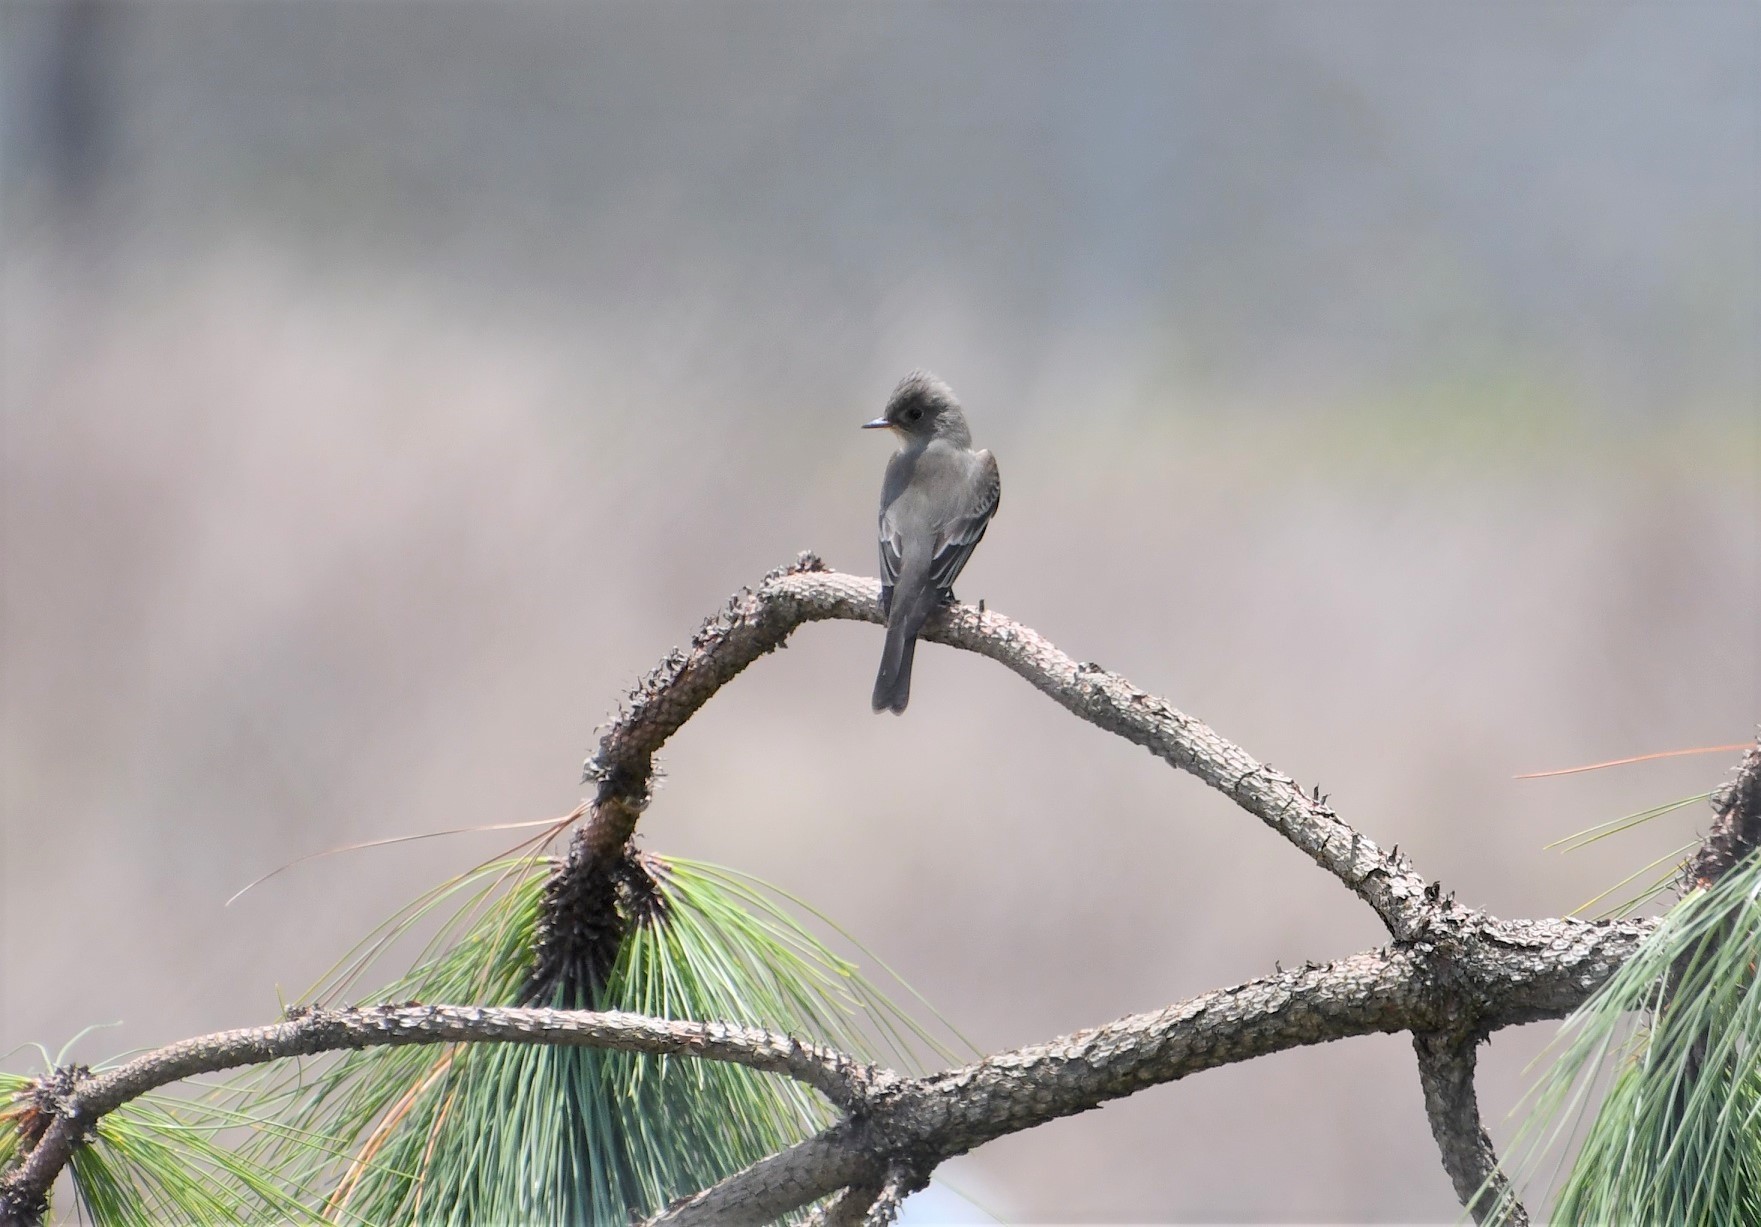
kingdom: Animalia
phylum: Chordata
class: Aves
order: Passeriformes
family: Tyrannidae
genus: Contopus
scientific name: Contopus pertinax
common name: Greater pewee
